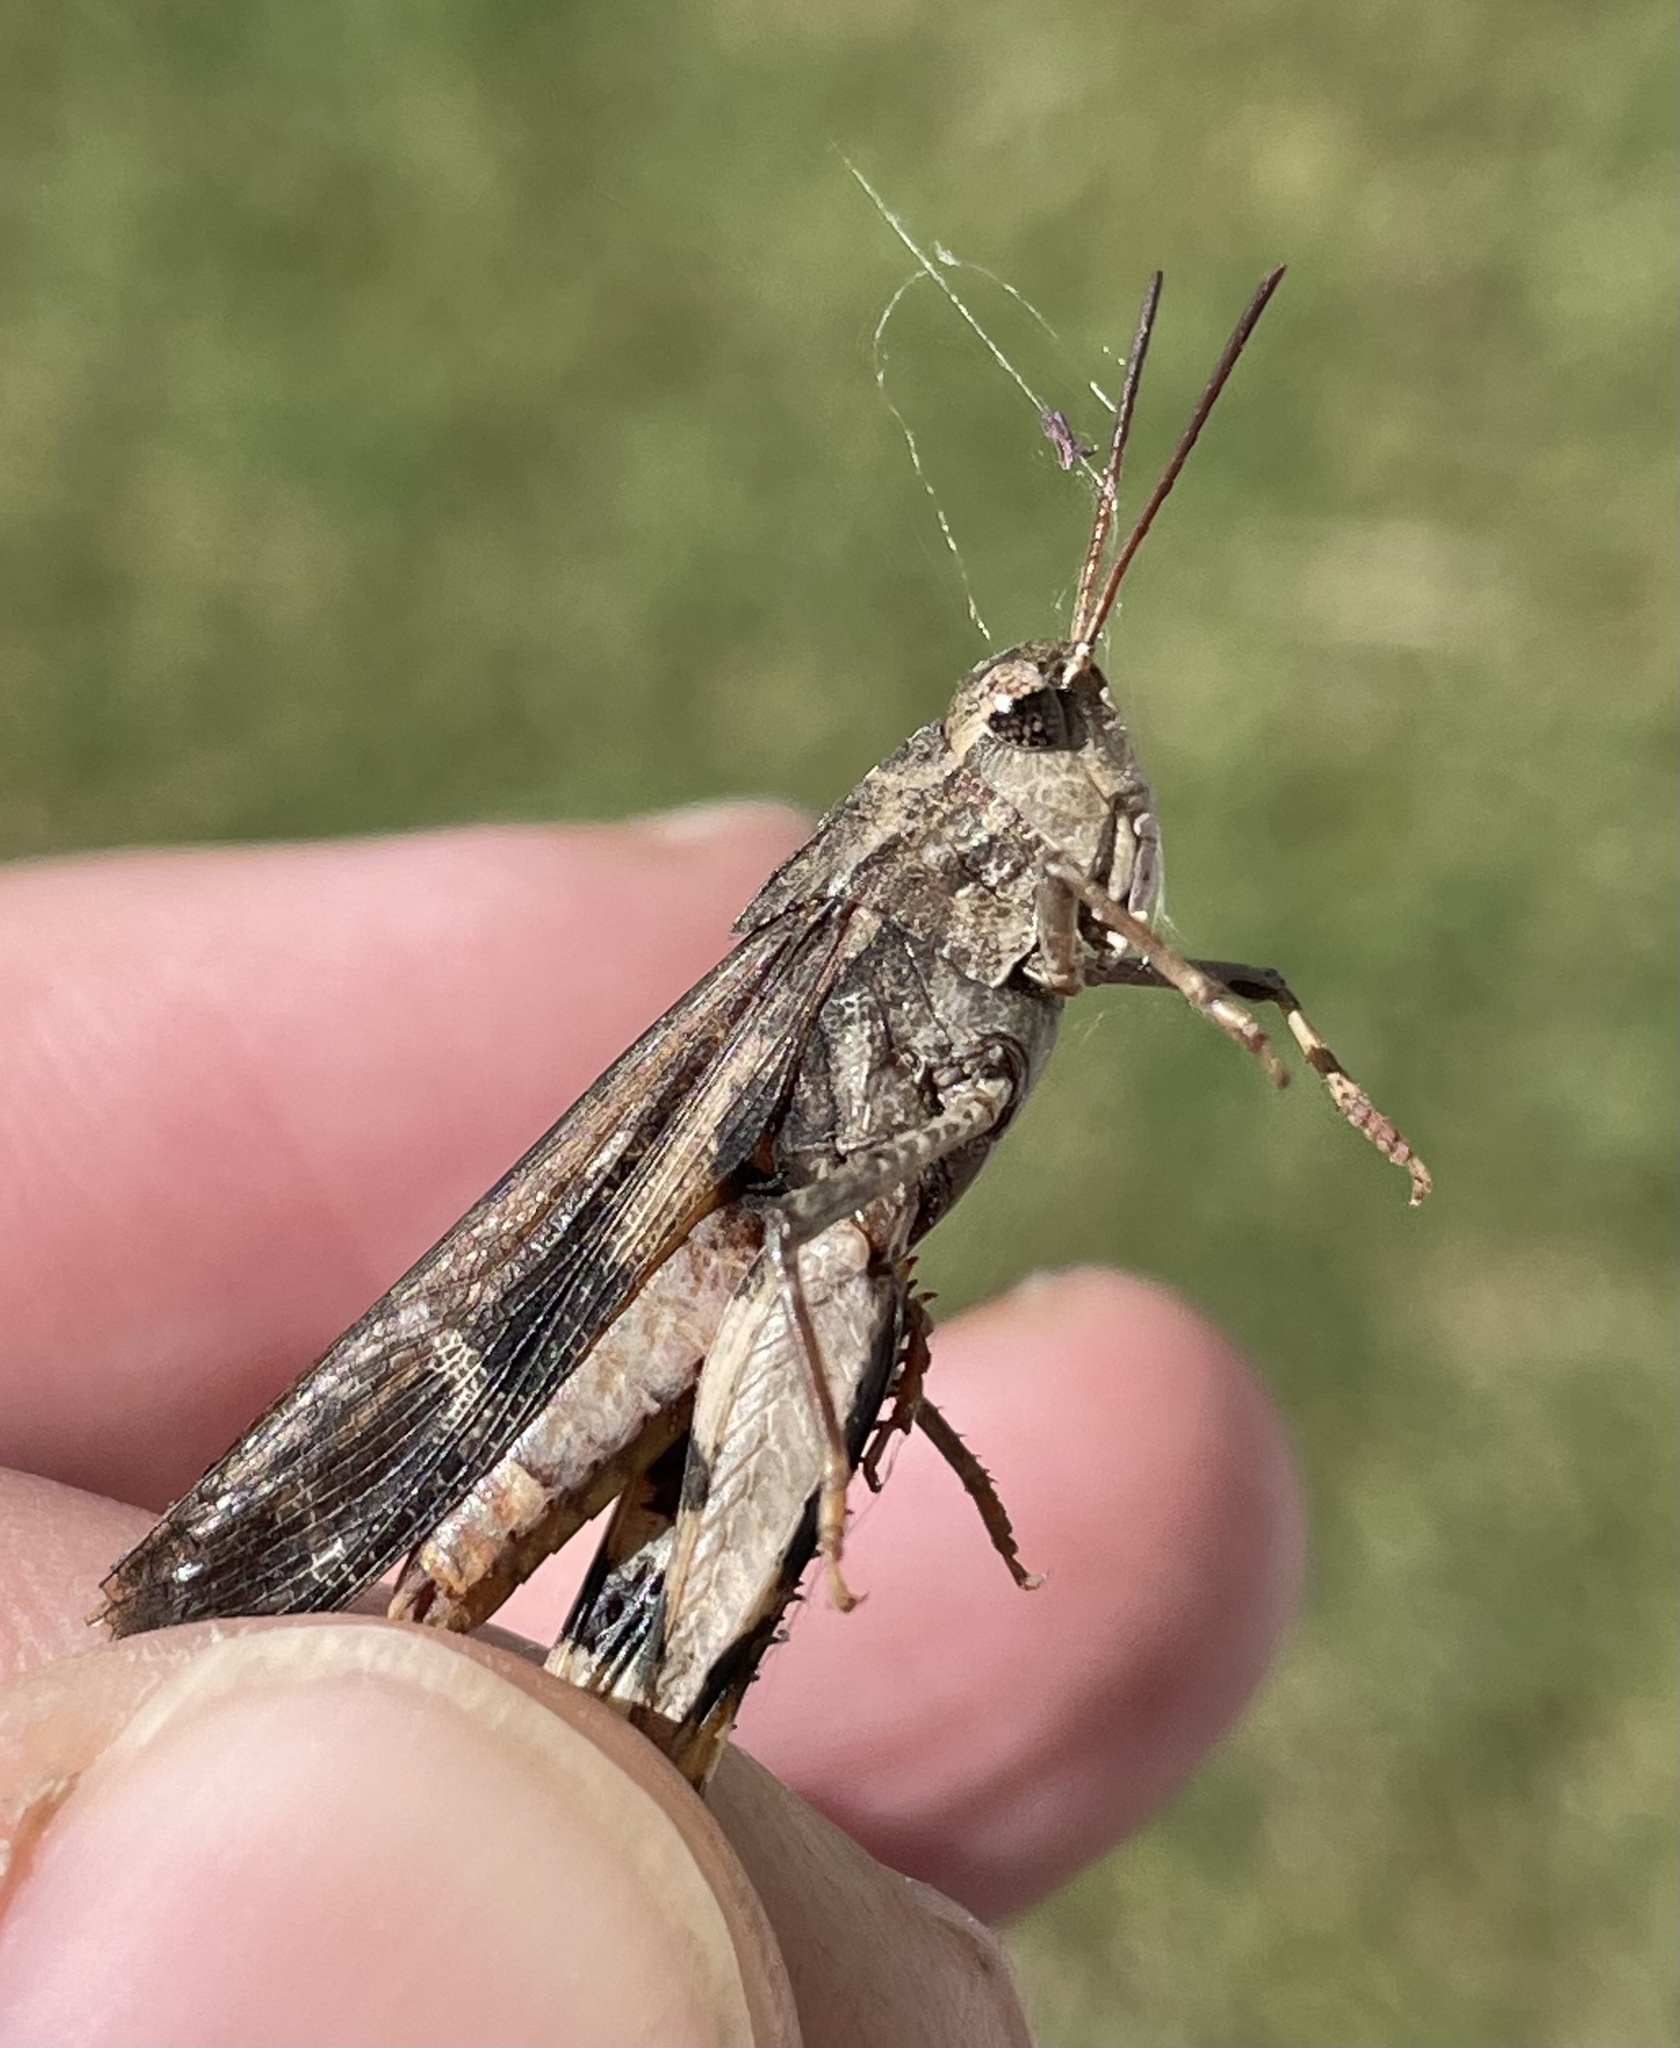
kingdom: Animalia
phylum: Arthropoda
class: Insecta
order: Orthoptera
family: Acrididae
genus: Chortophaga
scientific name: Chortophaga viridifasciata
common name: Green-striped grasshopper
